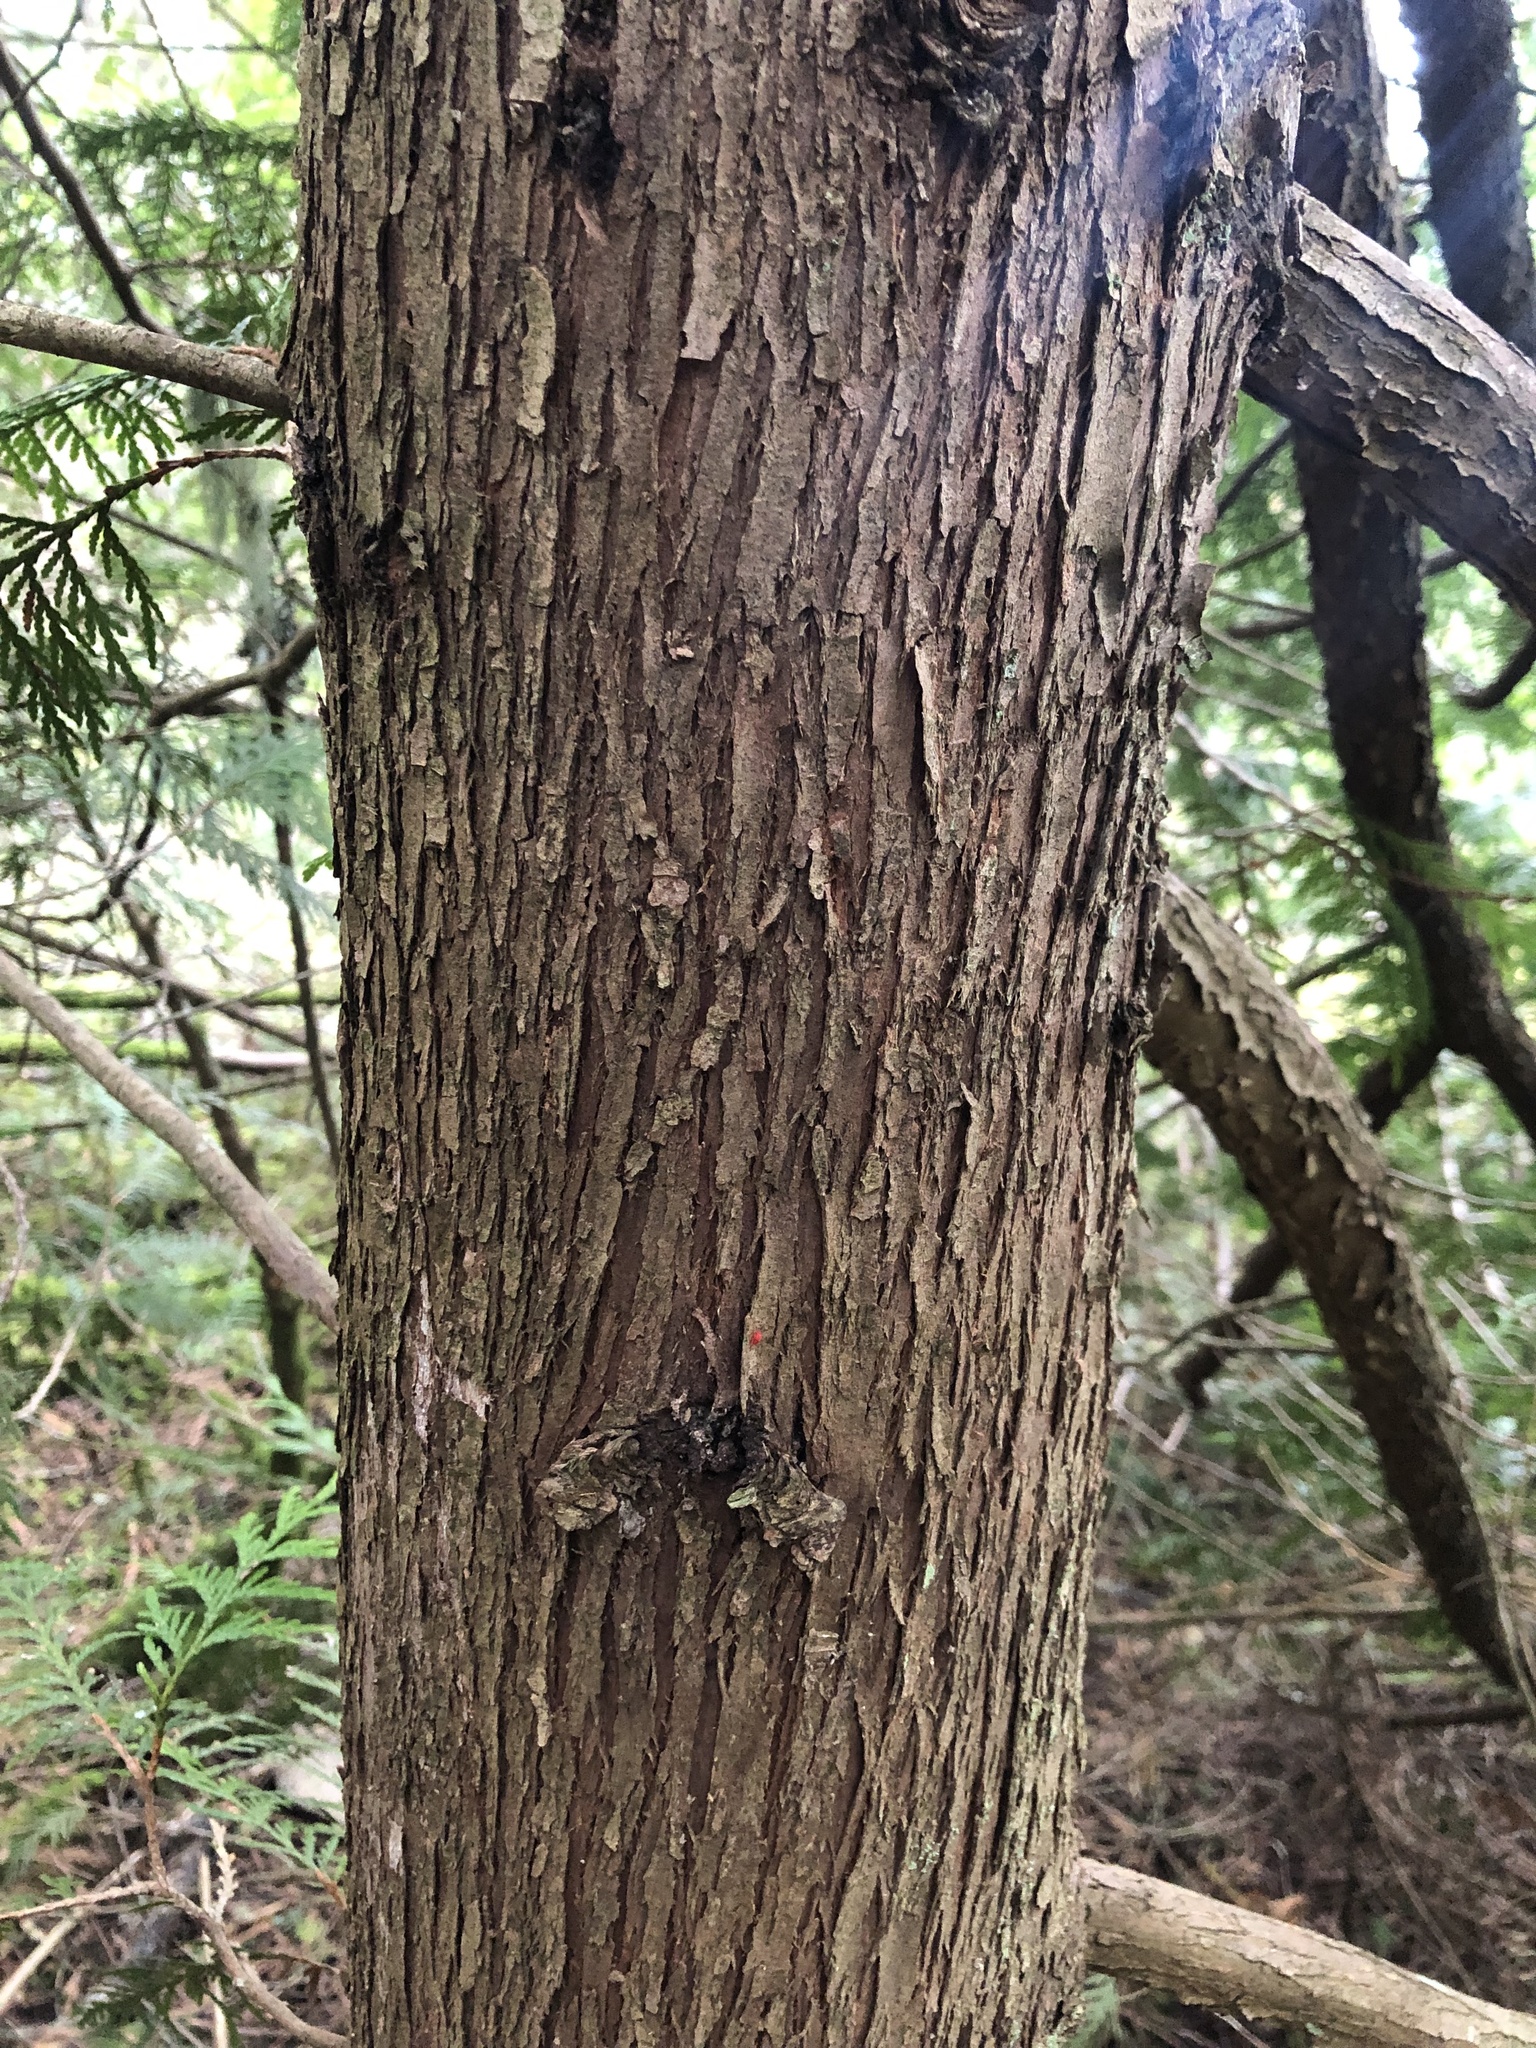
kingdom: Plantae
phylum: Tracheophyta
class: Pinopsida
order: Pinales
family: Cupressaceae
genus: Thuja
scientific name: Thuja plicata
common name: Western red-cedar
